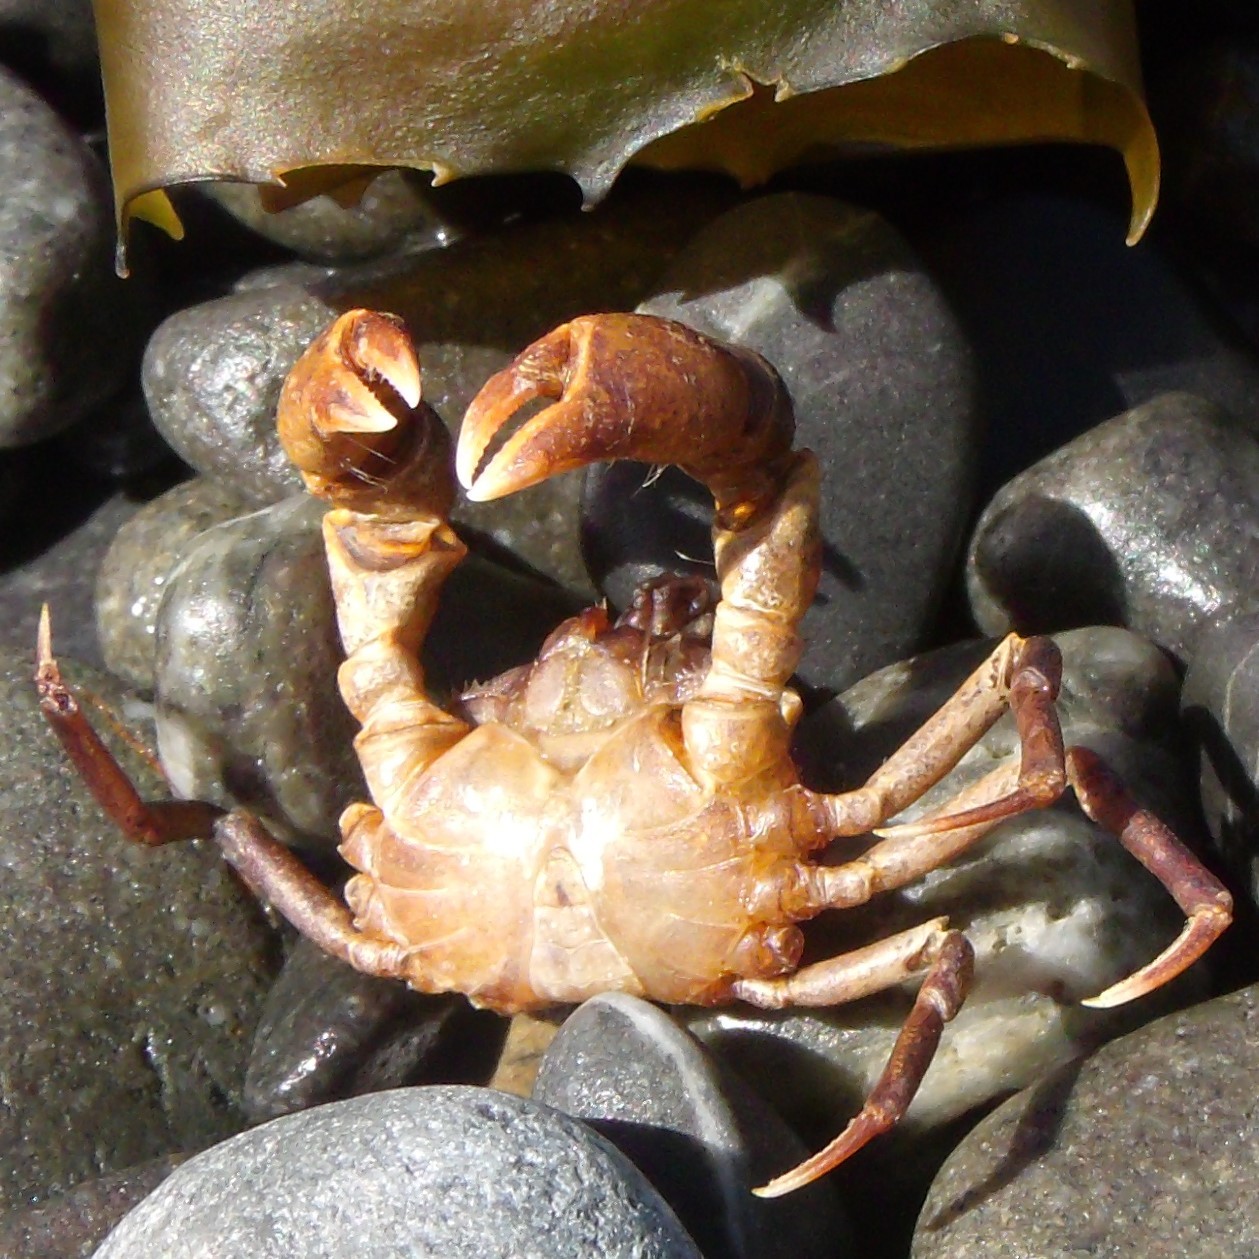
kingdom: Animalia
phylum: Arthropoda
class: Malacostraca
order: Decapoda
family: Hymenosomatidae
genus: Halicarcinus
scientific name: Halicarcinus cookii
